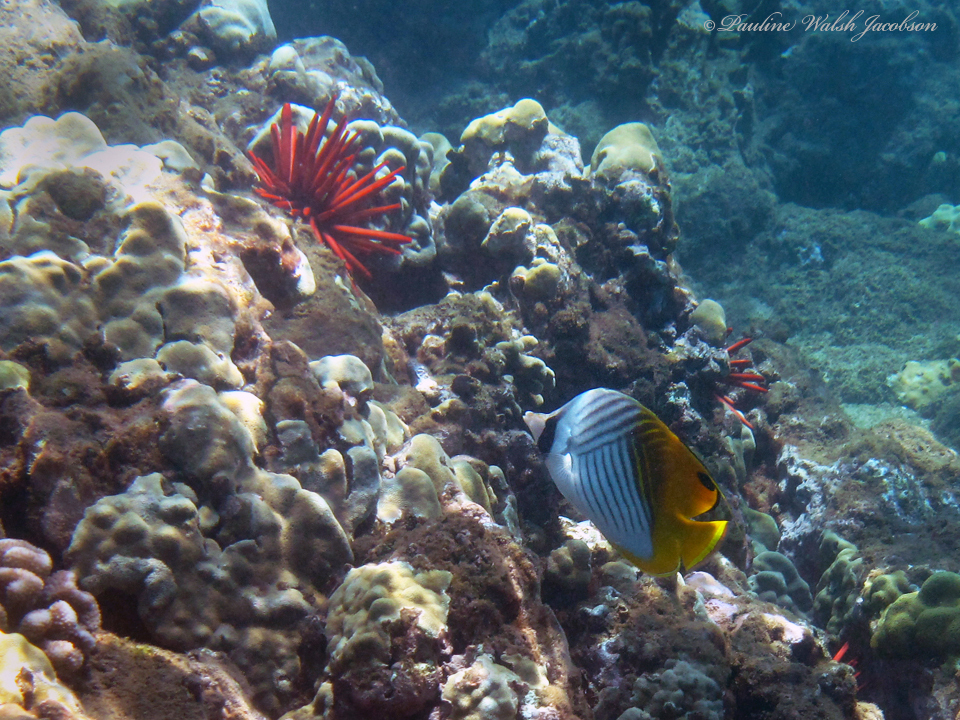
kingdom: Animalia
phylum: Chordata
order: Perciformes
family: Chaetodontidae
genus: Chaetodon
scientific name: Chaetodon auriga
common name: Threadfin butterflyfish
